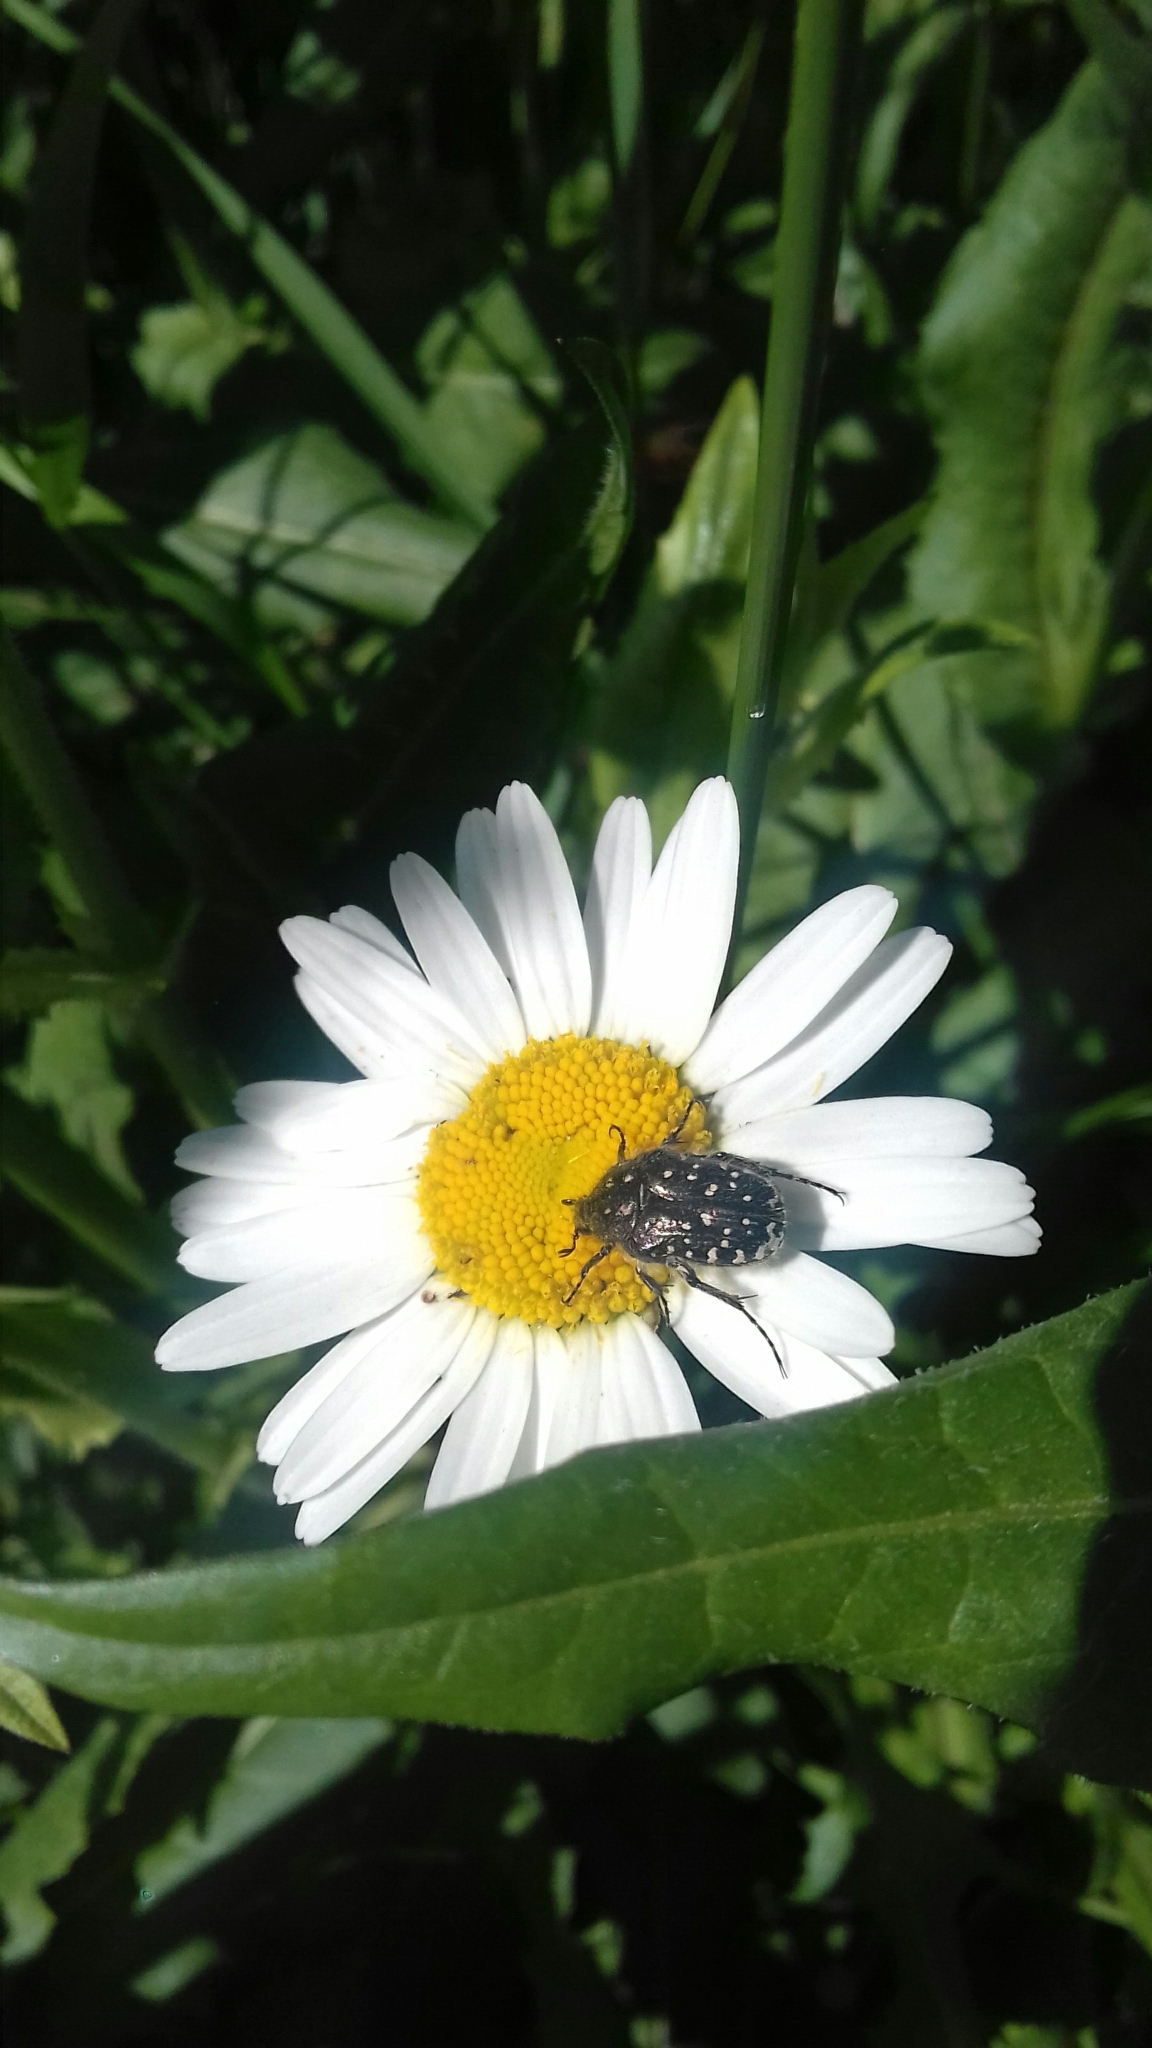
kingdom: Animalia
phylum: Arthropoda
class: Insecta
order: Coleoptera
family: Scarabaeidae
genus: Oxythyrea
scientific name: Oxythyrea funesta
